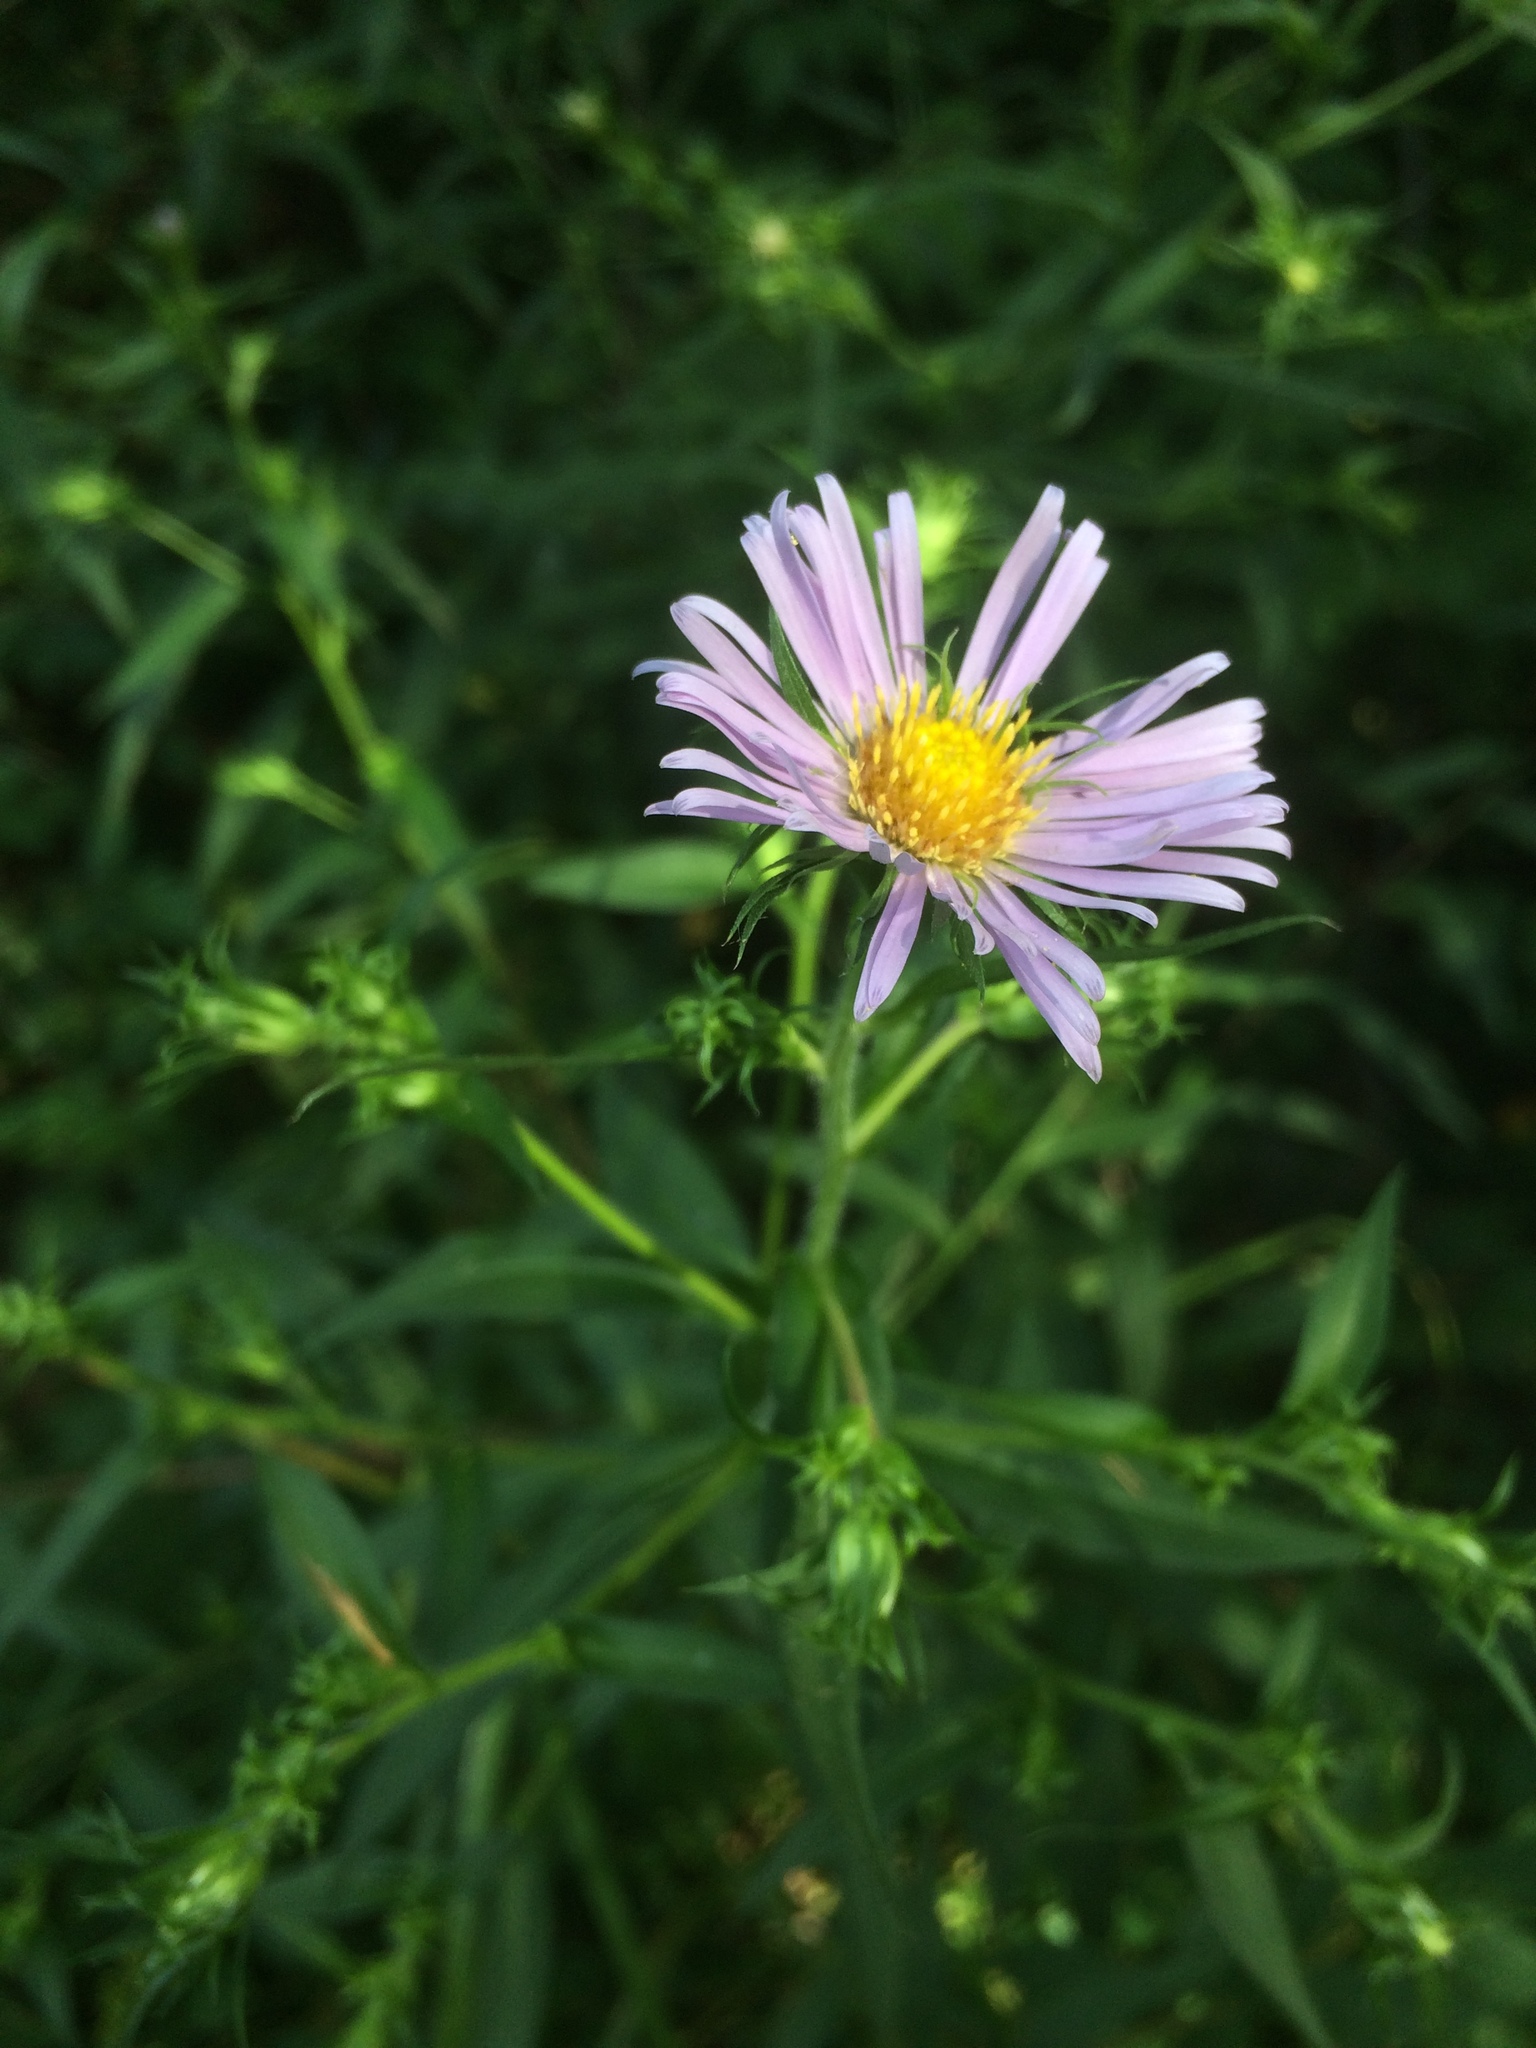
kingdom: Plantae
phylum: Tracheophyta
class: Magnoliopsida
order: Asterales
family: Asteraceae
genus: Symphyotrichum
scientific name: Symphyotrichum puniceum
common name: Bog aster
